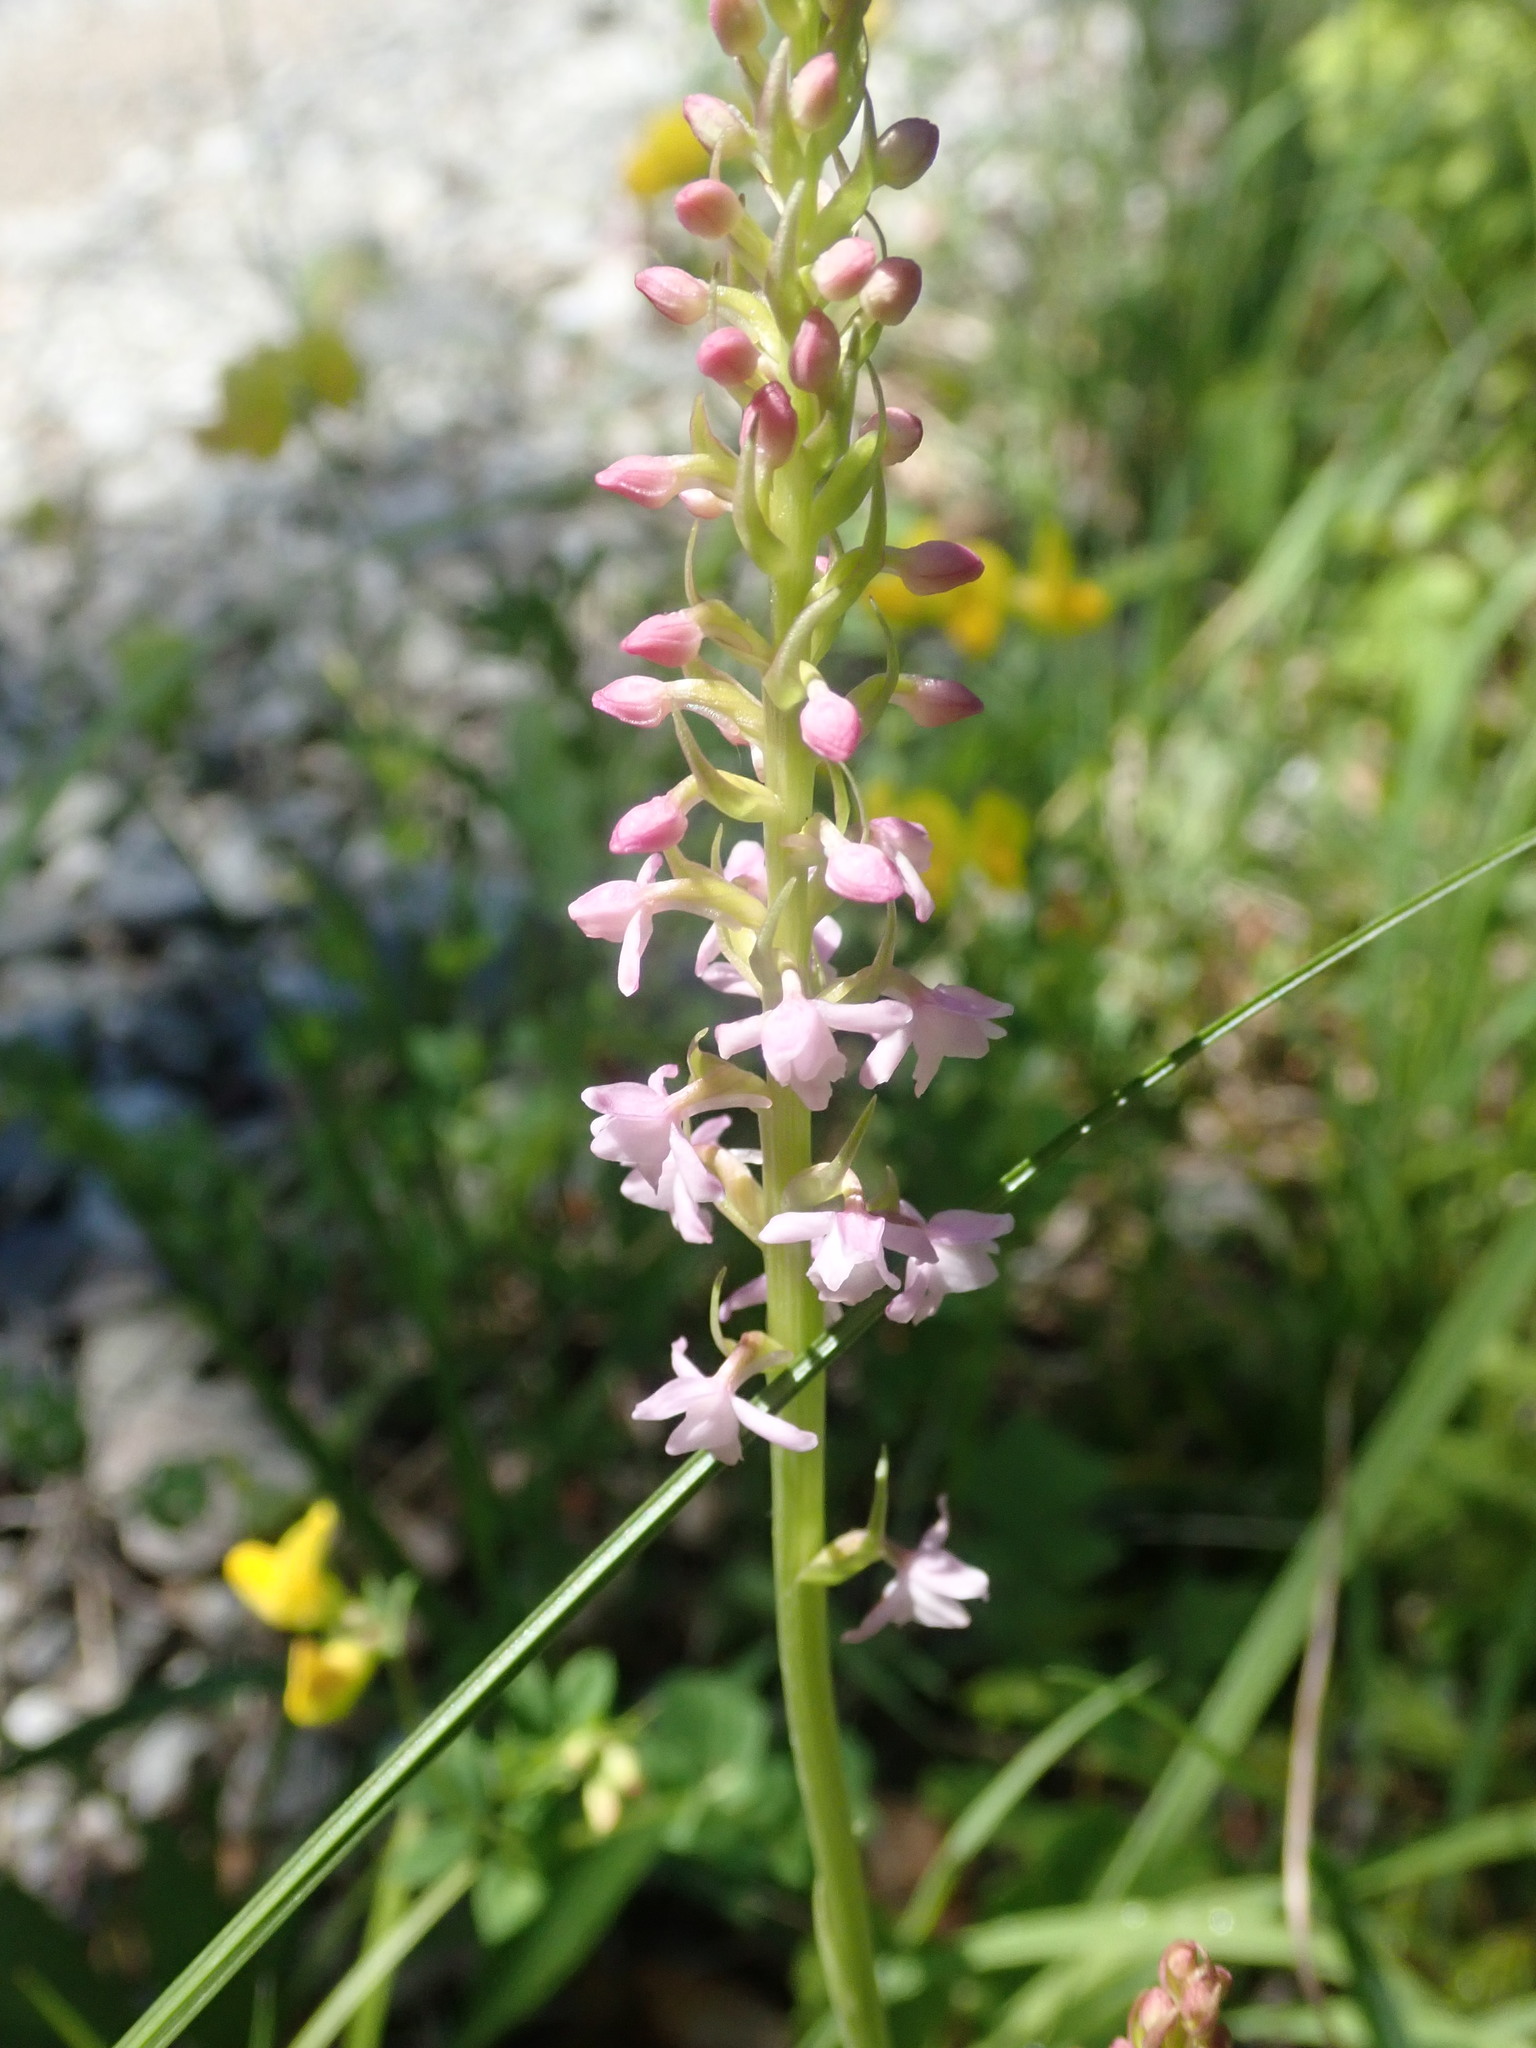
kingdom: Plantae
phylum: Tracheophyta
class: Liliopsida
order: Asparagales
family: Orchidaceae
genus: Gymnadenia
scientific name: Gymnadenia odoratissima
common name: Scented gymnadenia
